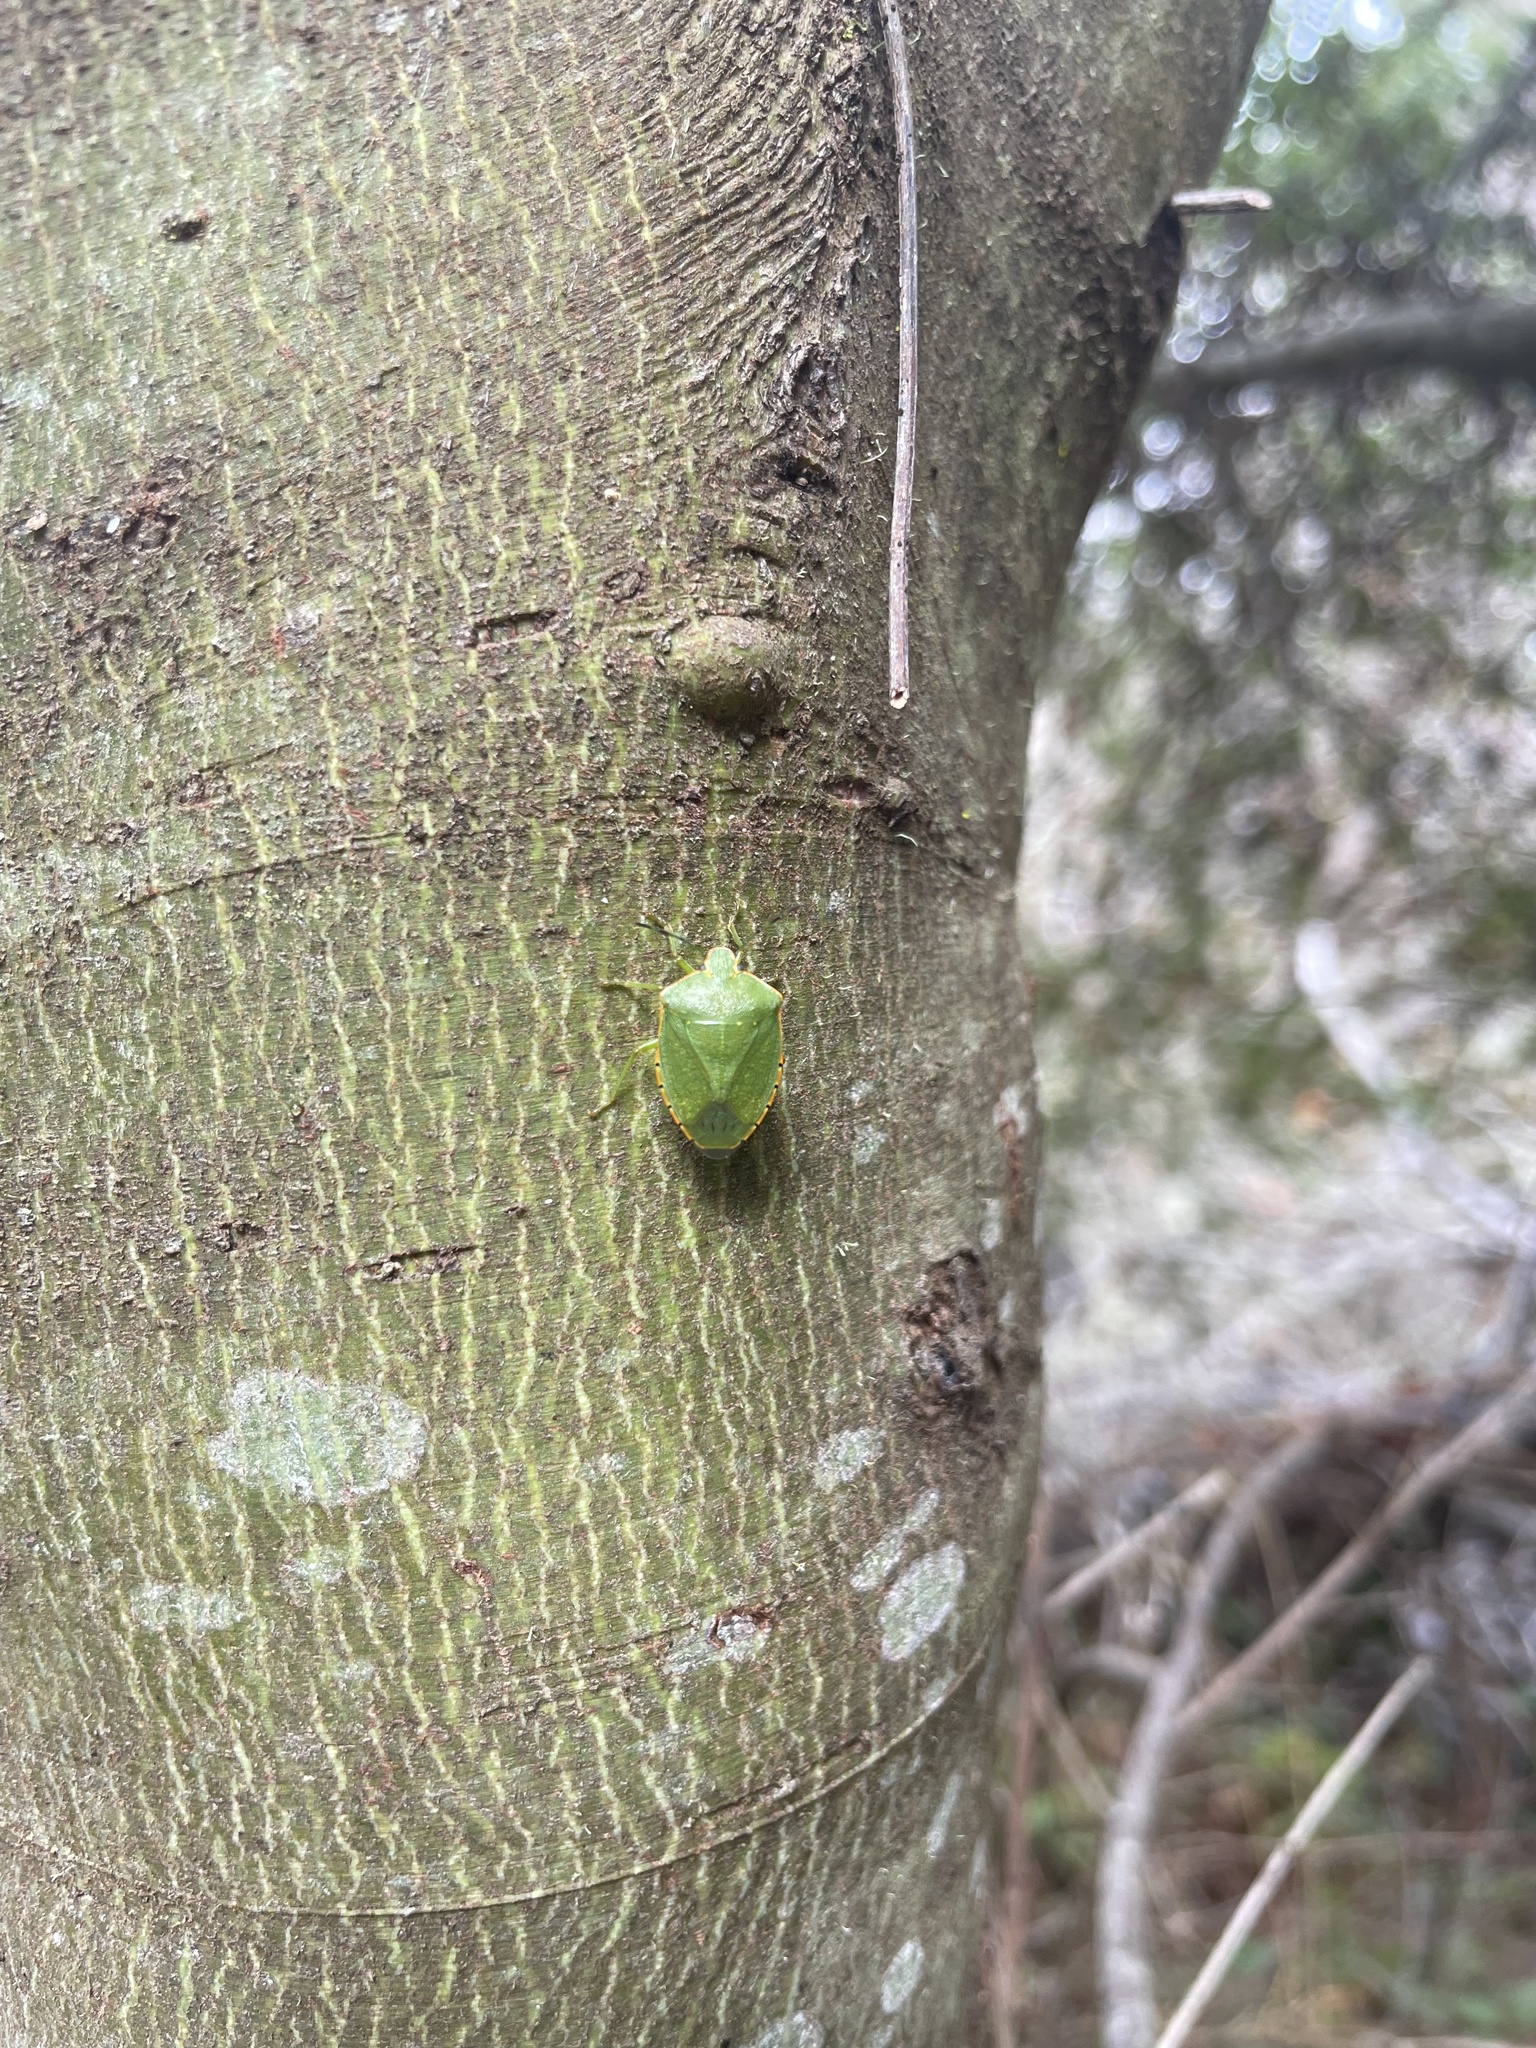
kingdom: Animalia
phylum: Arthropoda
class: Insecta
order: Hemiptera
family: Pentatomidae
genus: Chinavia
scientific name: Chinavia hilaris
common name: Green stink bug
